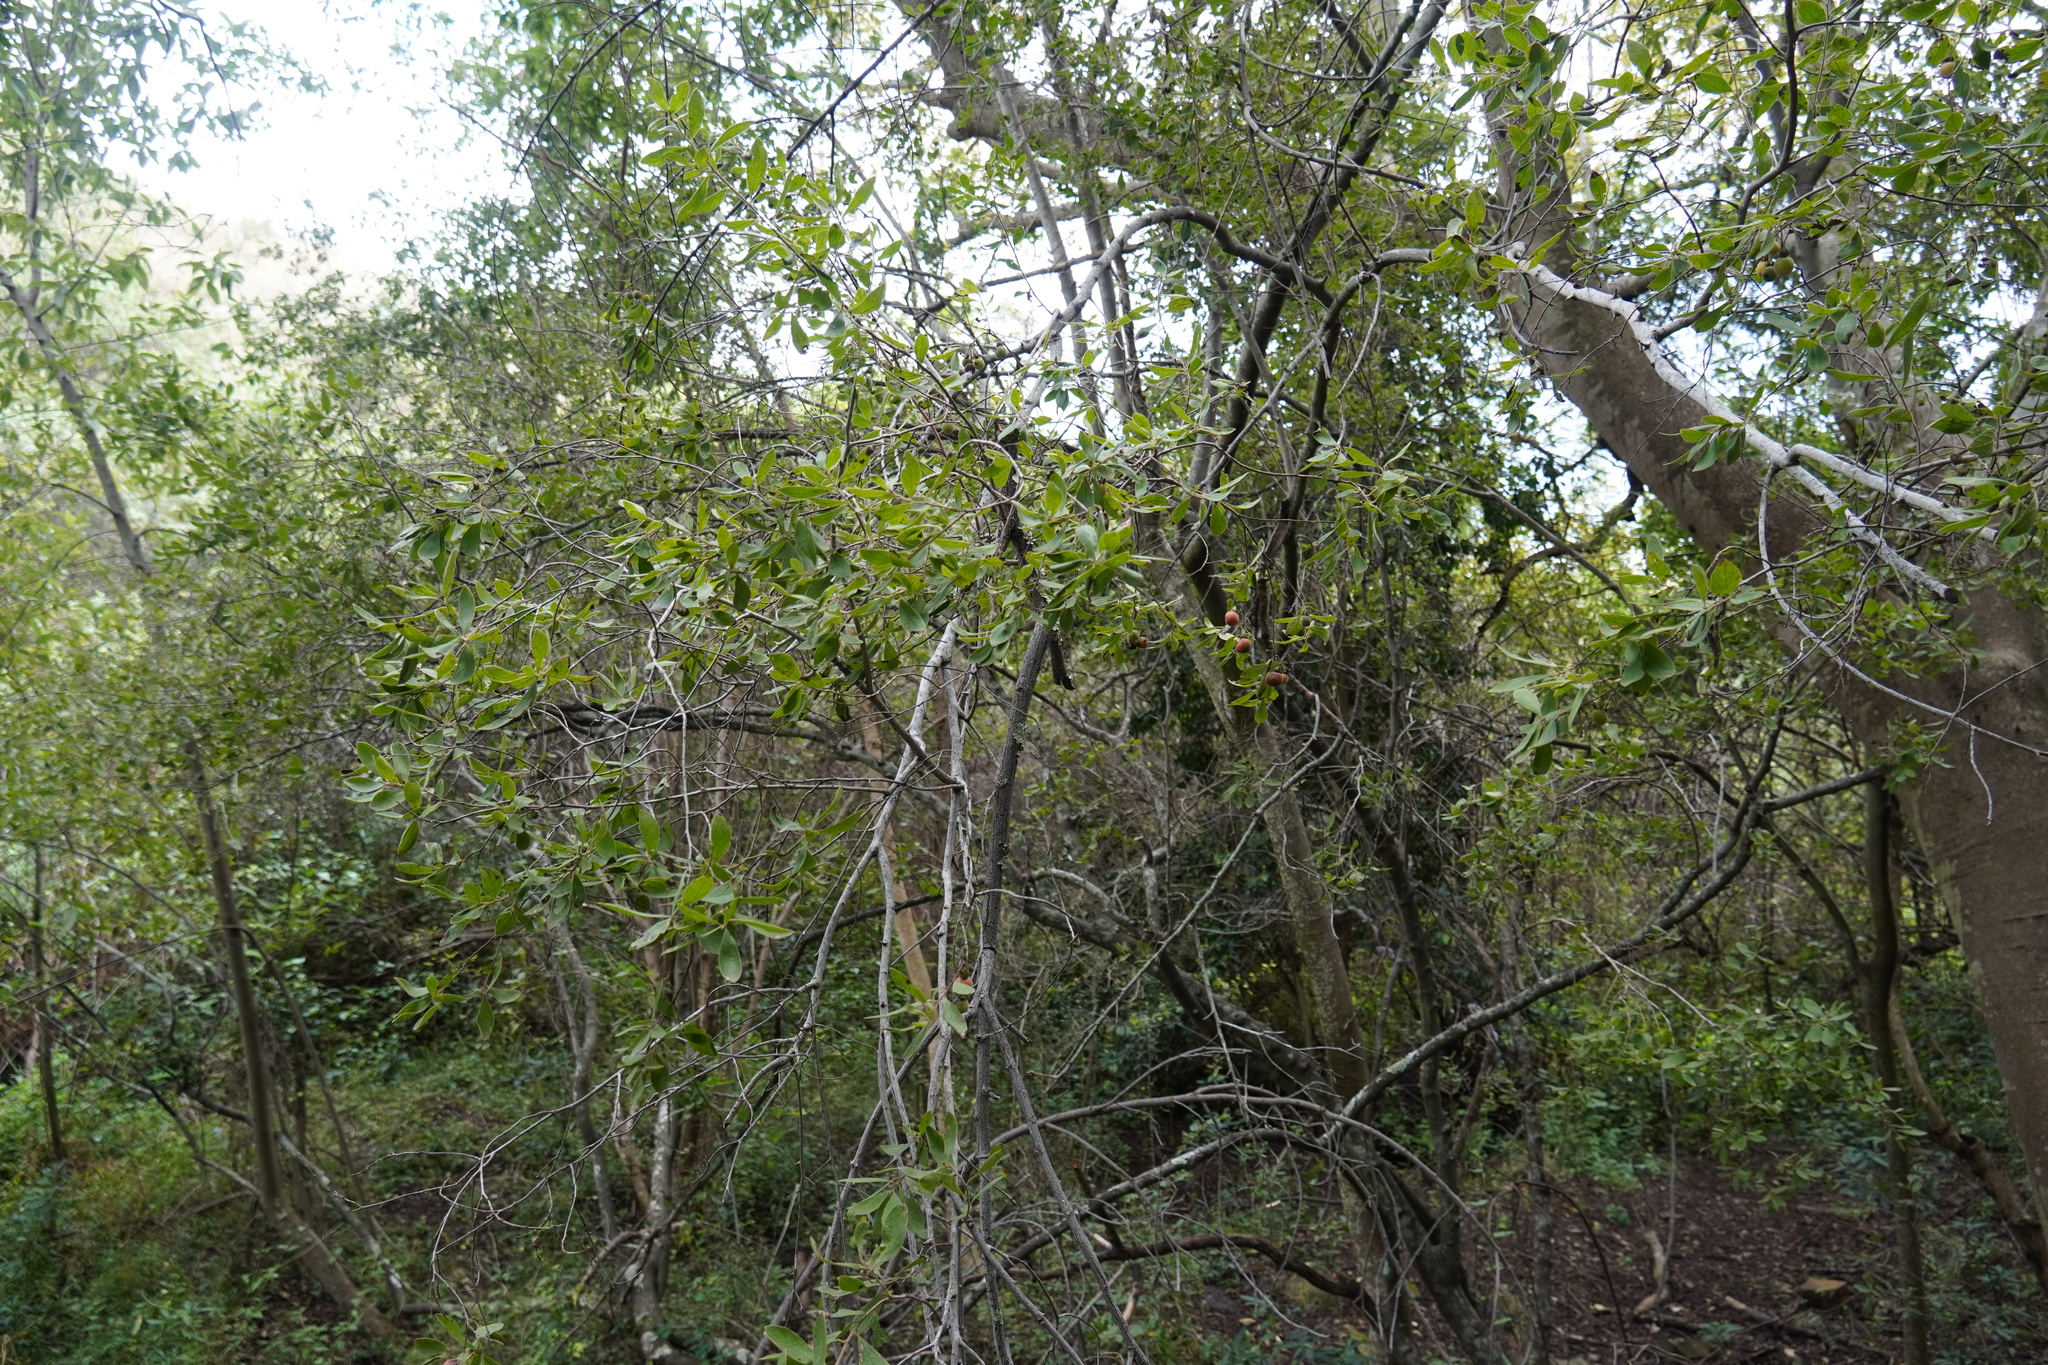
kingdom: Plantae
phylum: Tracheophyta
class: Magnoliopsida
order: Ericales
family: Ebenaceae
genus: Diospyros
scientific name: Diospyros lycioides
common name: Red star apple
